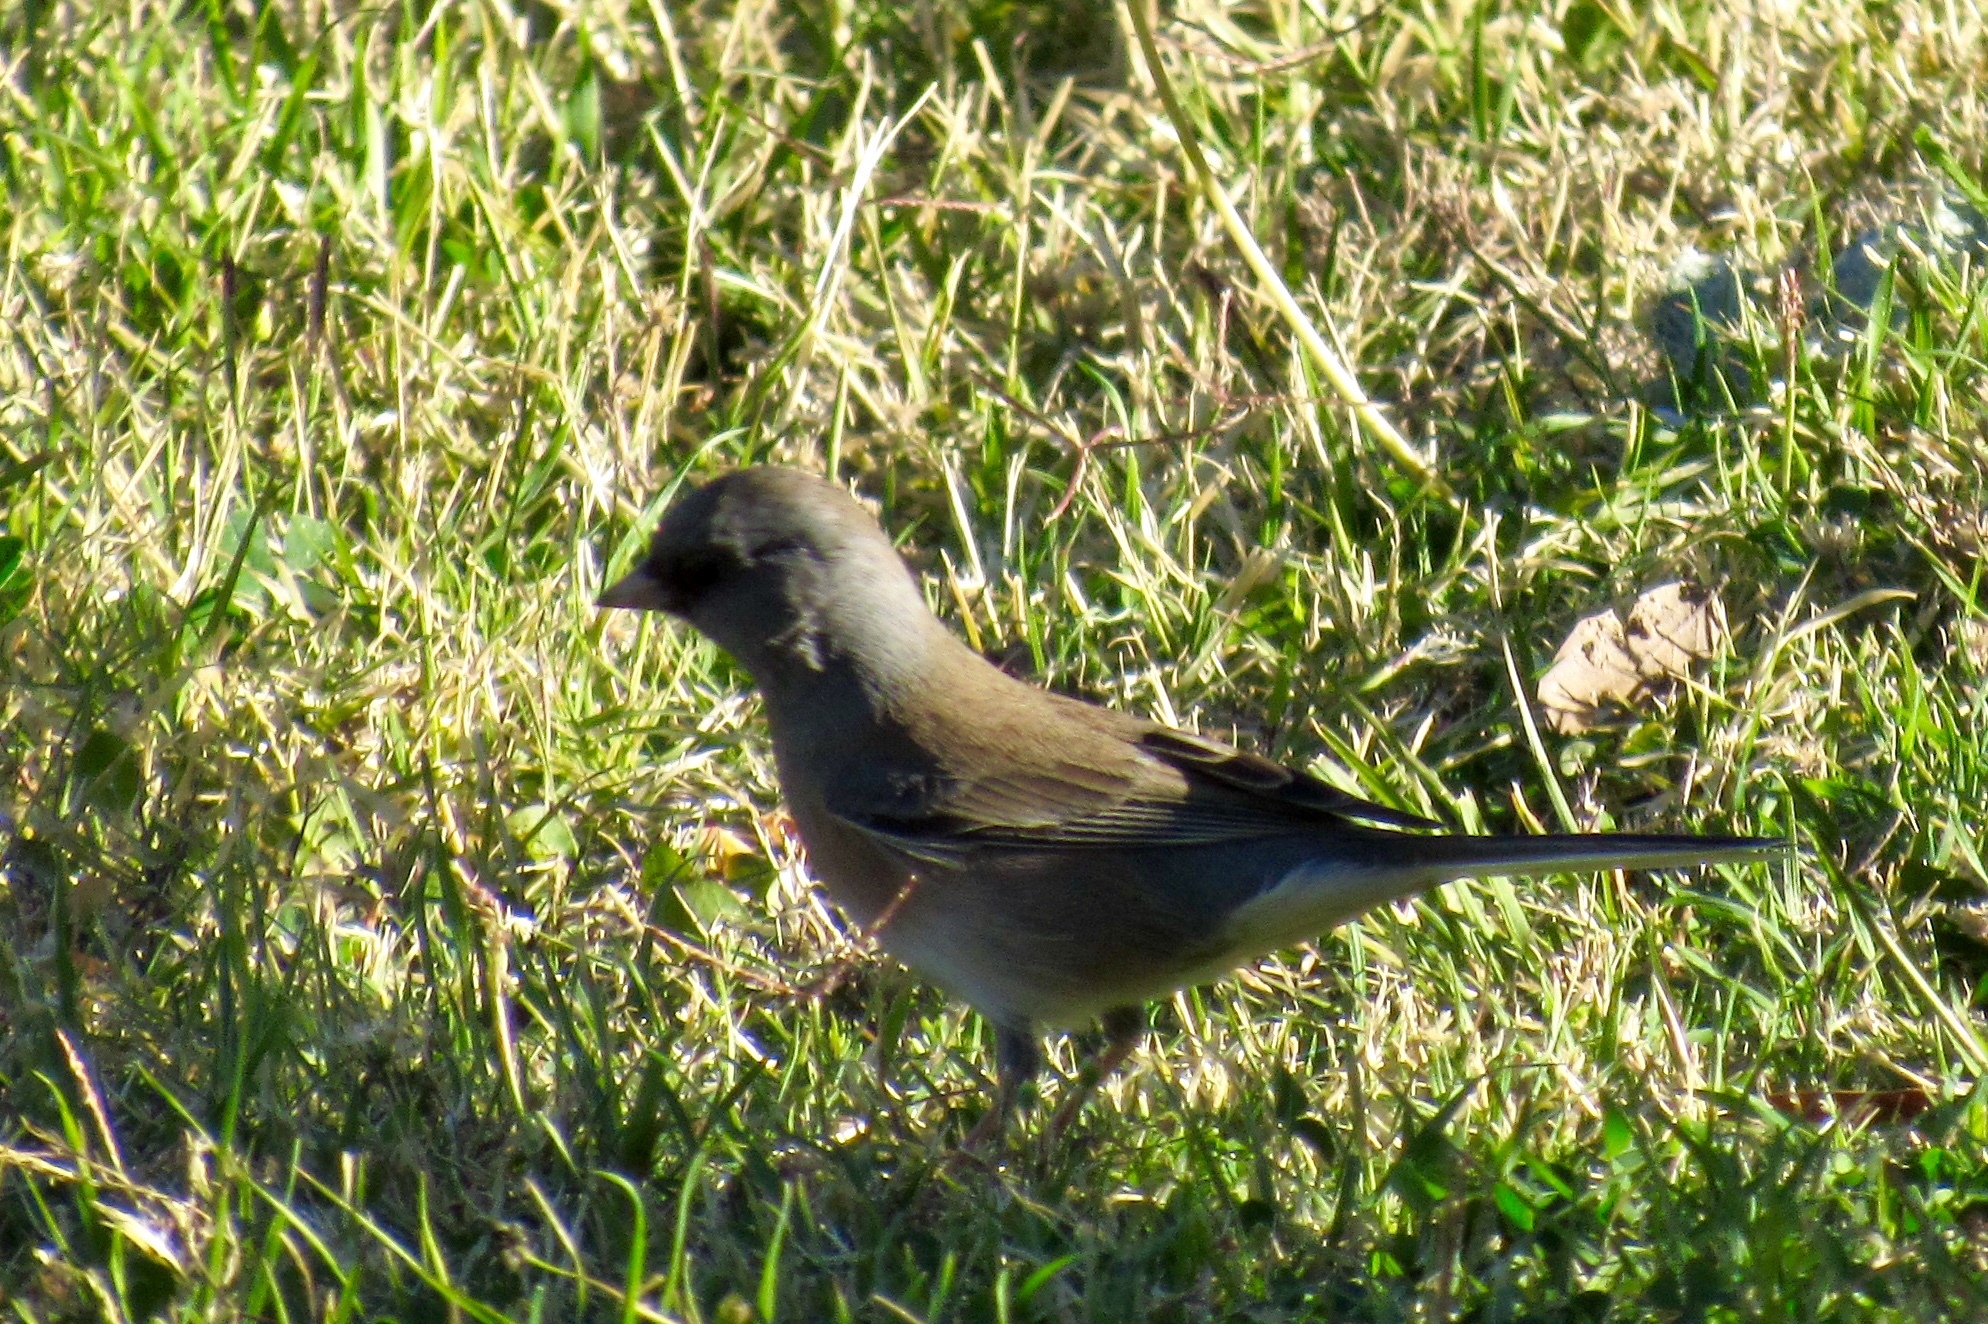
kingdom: Animalia
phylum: Chordata
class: Aves
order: Passeriformes
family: Passerellidae
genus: Junco
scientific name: Junco hyemalis
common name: Dark-eyed junco
